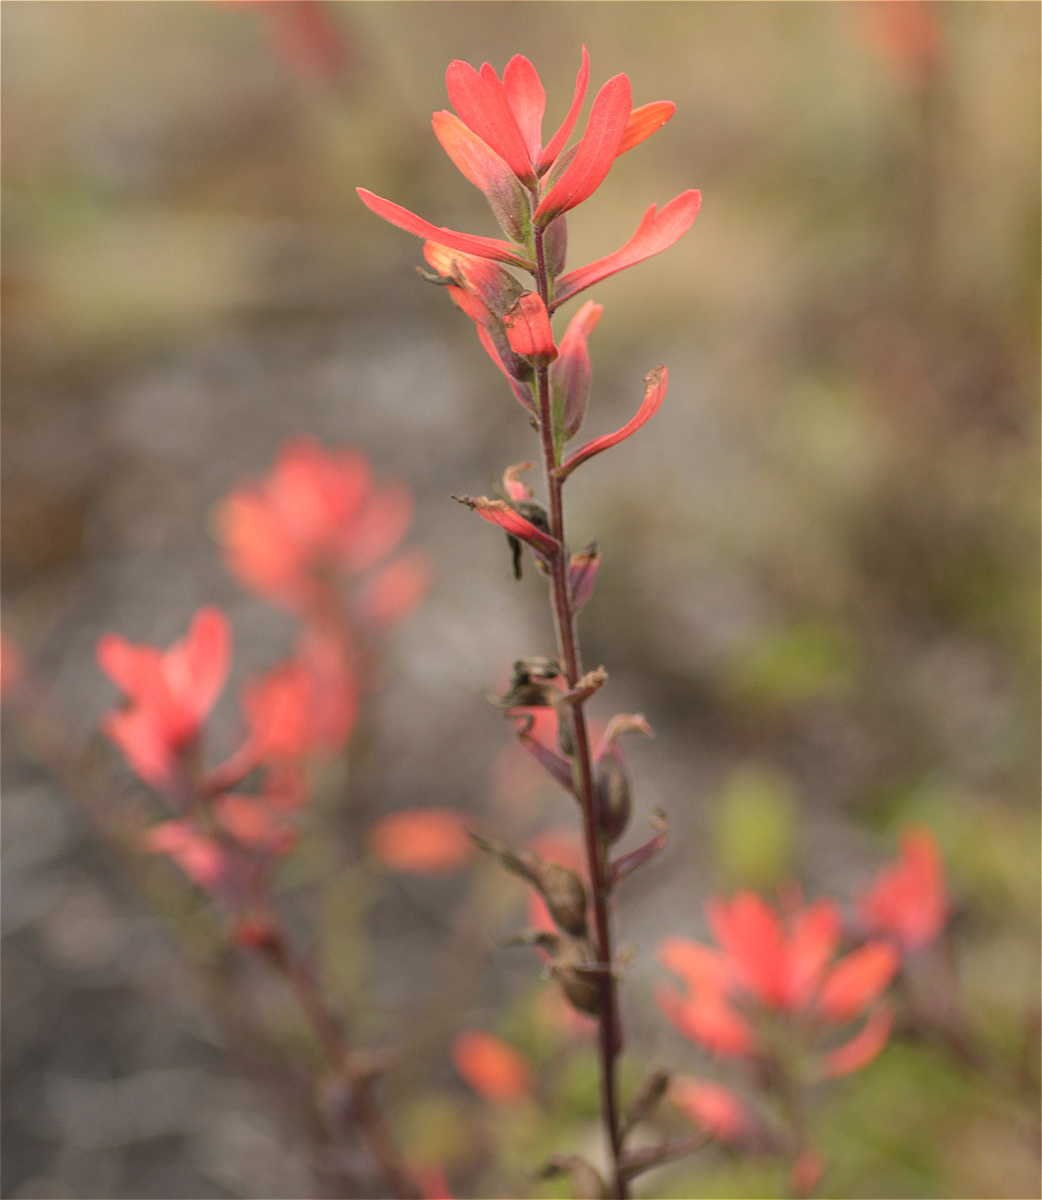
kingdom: Plantae
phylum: Tracheophyta
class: Magnoliopsida
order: Lamiales
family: Orobanchaceae
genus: Castilleja
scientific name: Castilleja integrifolia
